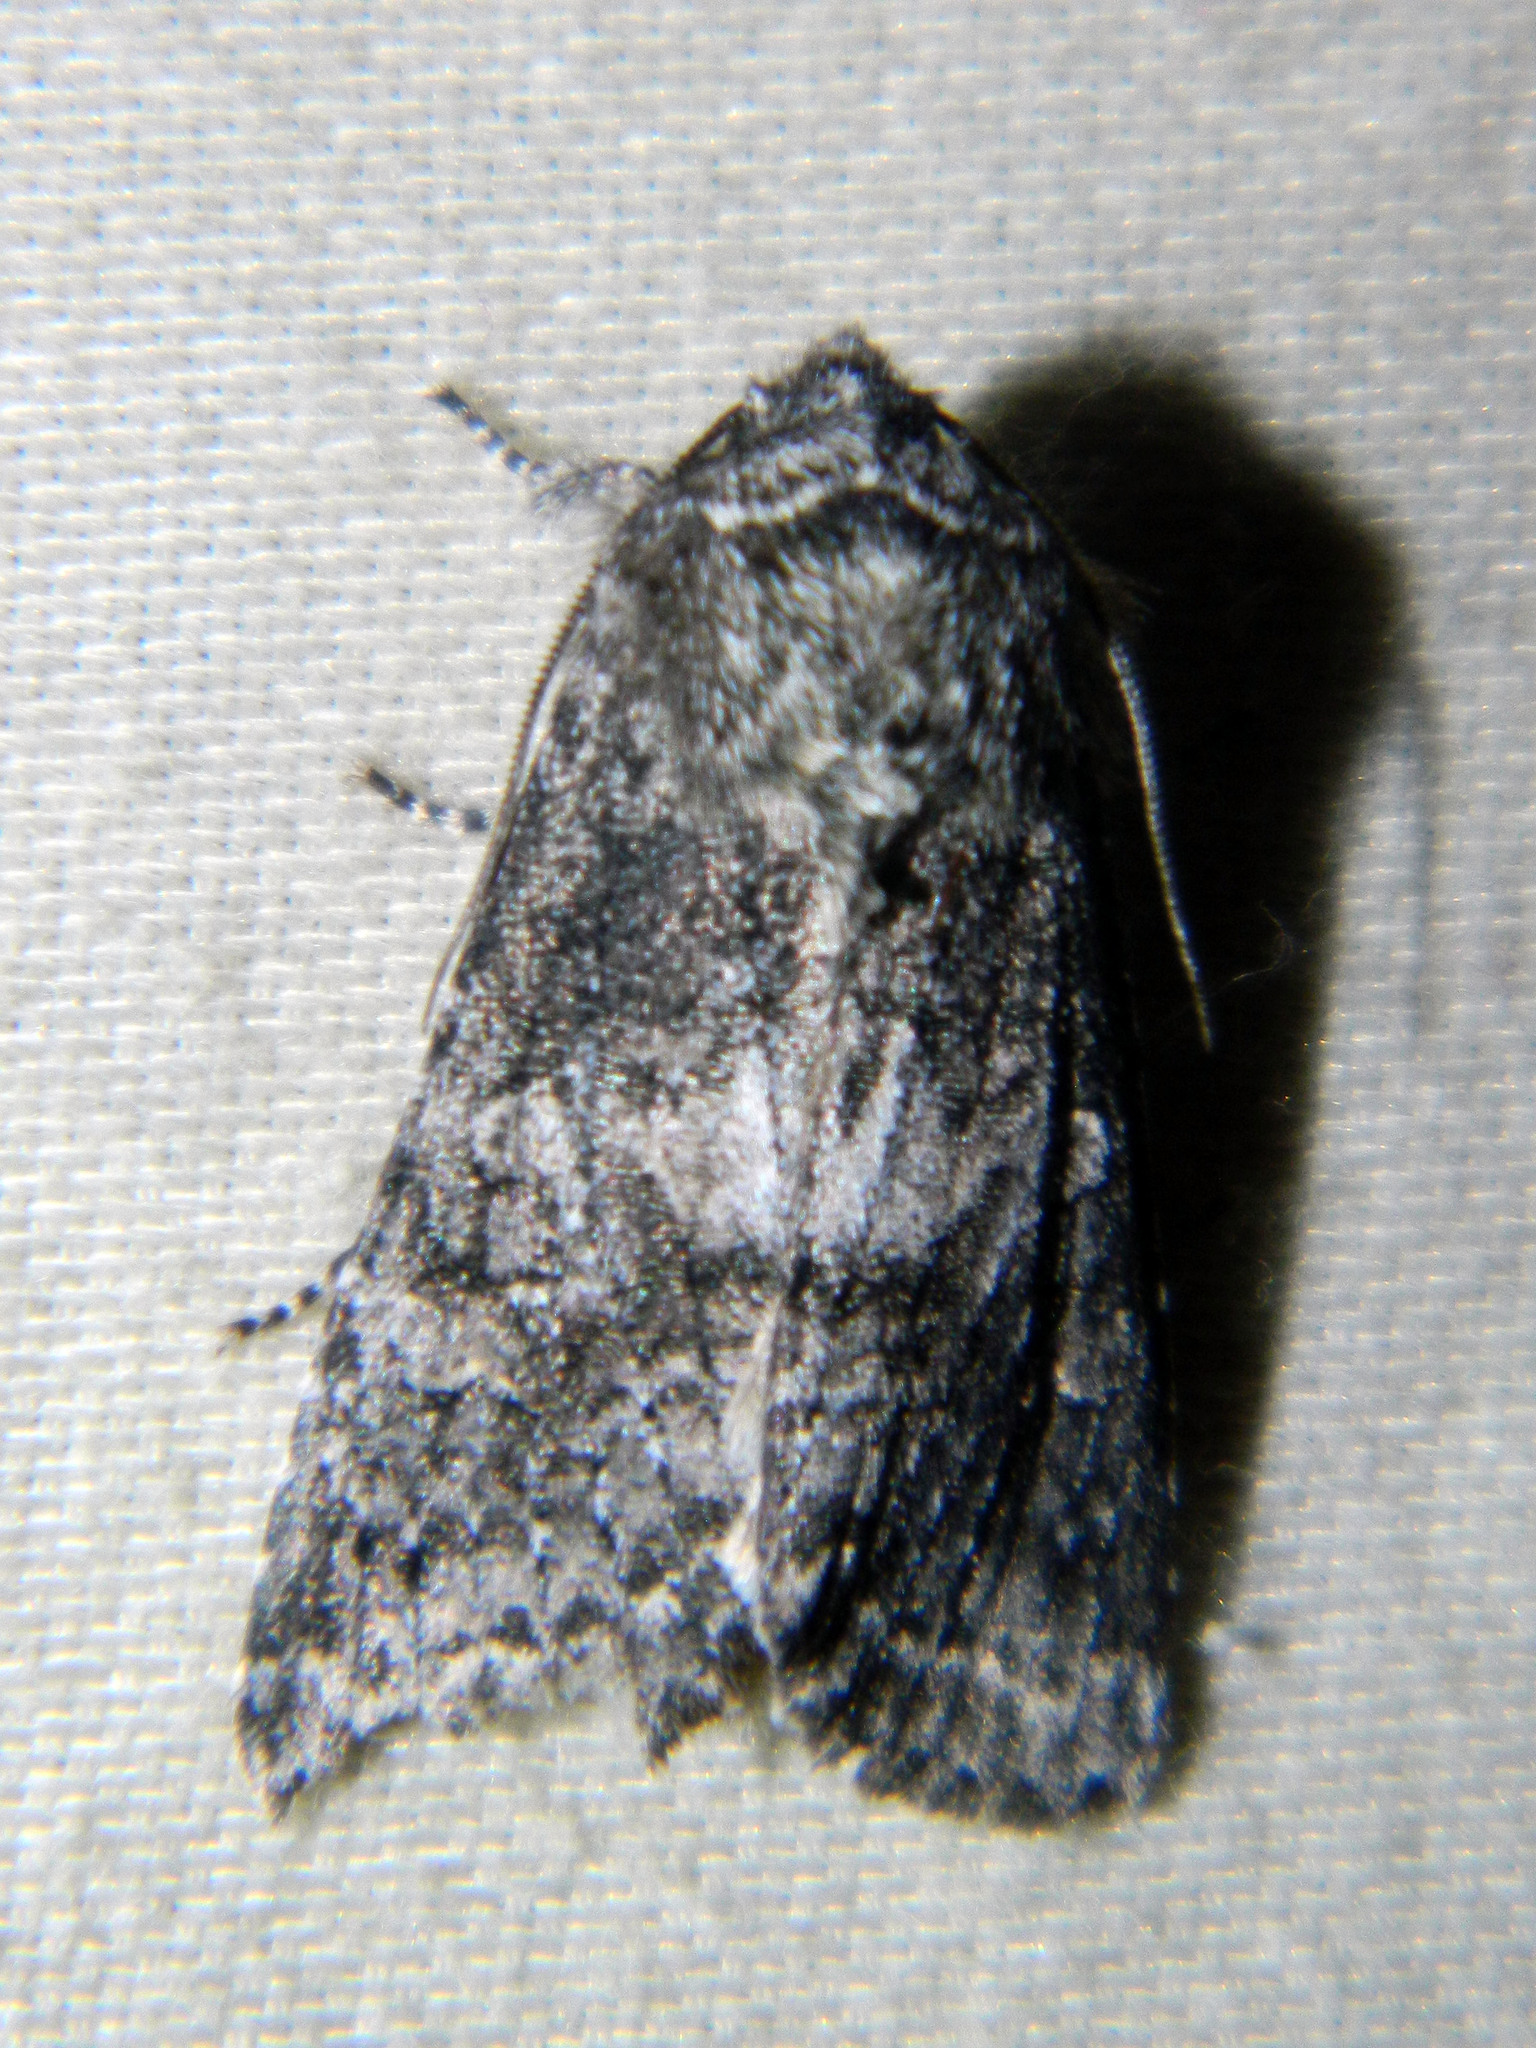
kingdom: Animalia
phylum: Arthropoda
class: Insecta
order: Lepidoptera
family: Noctuidae
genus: Egira
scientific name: Egira dolosa
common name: Lined black aspen cat.
